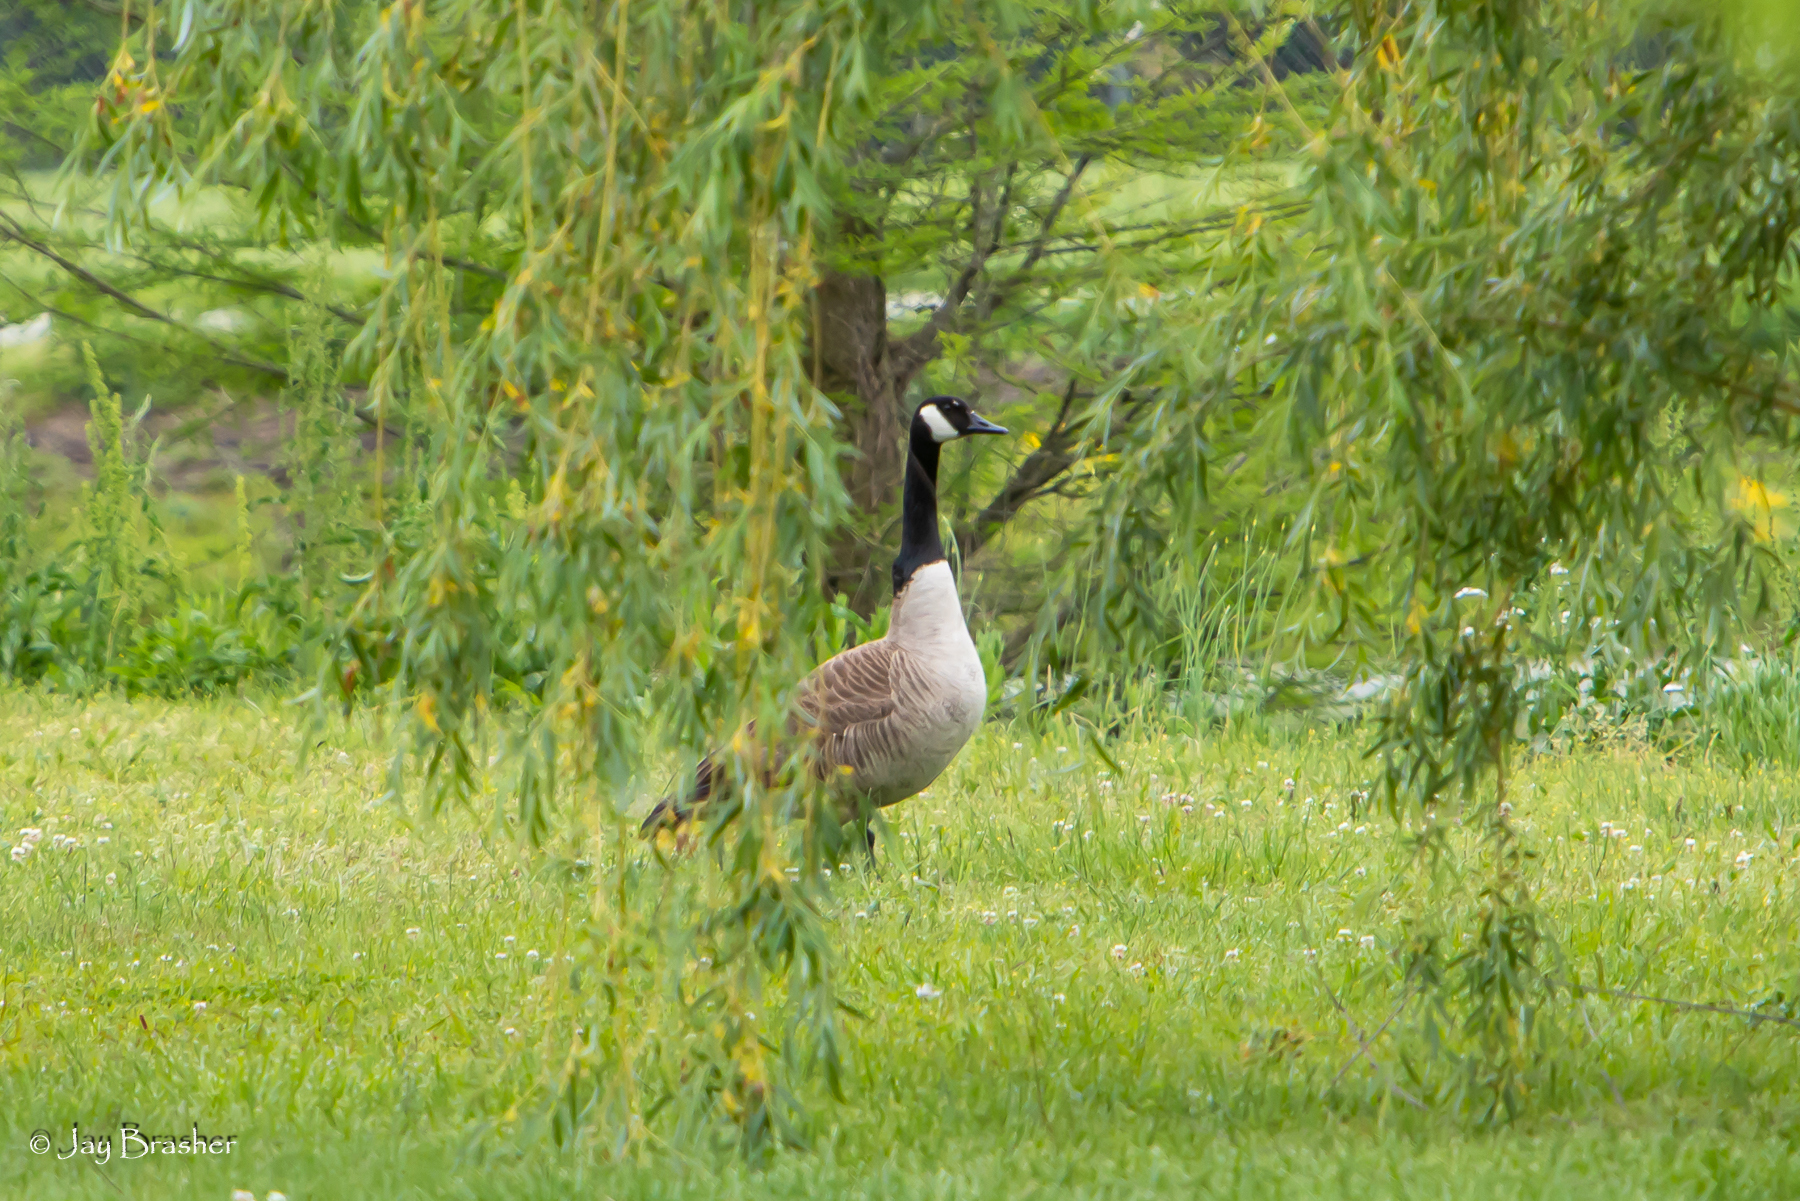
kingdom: Animalia
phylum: Chordata
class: Aves
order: Anseriformes
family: Anatidae
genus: Branta
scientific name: Branta canadensis
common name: Canada goose
